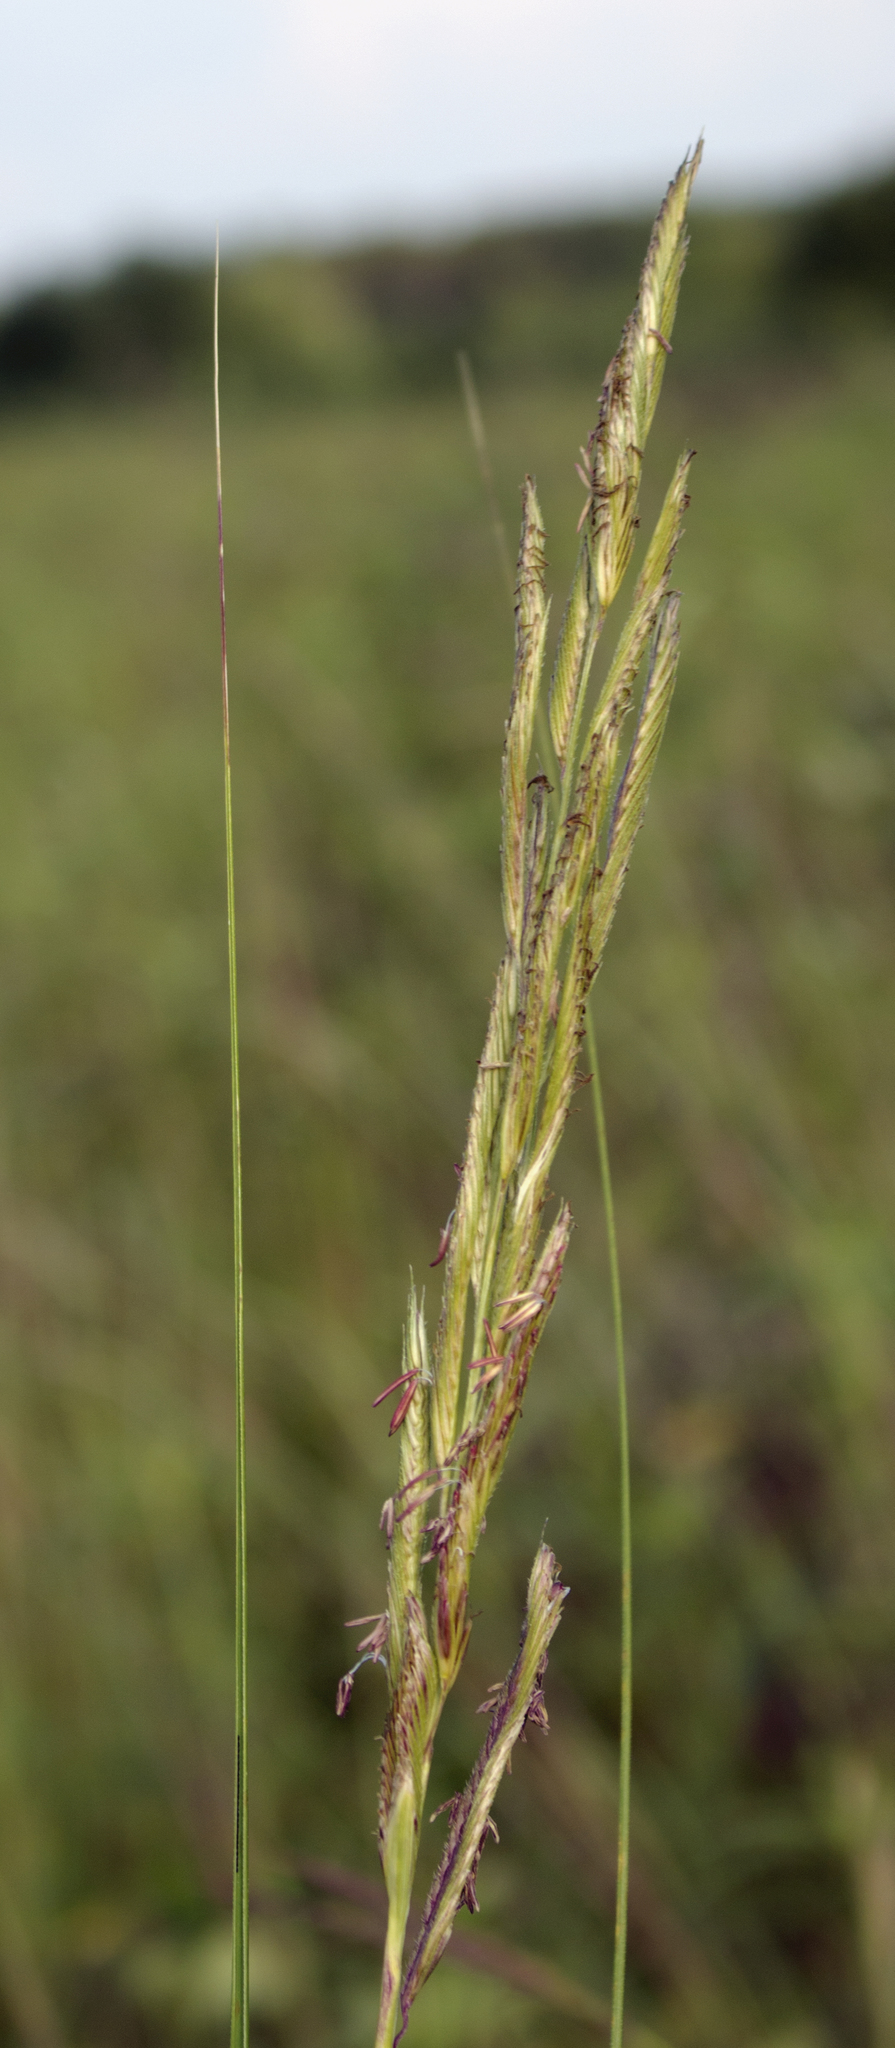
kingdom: Plantae
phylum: Tracheophyta
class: Liliopsida
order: Poales
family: Poaceae
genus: Sporobolus
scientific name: Sporobolus michauxianus
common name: Freshwater cordgrass
